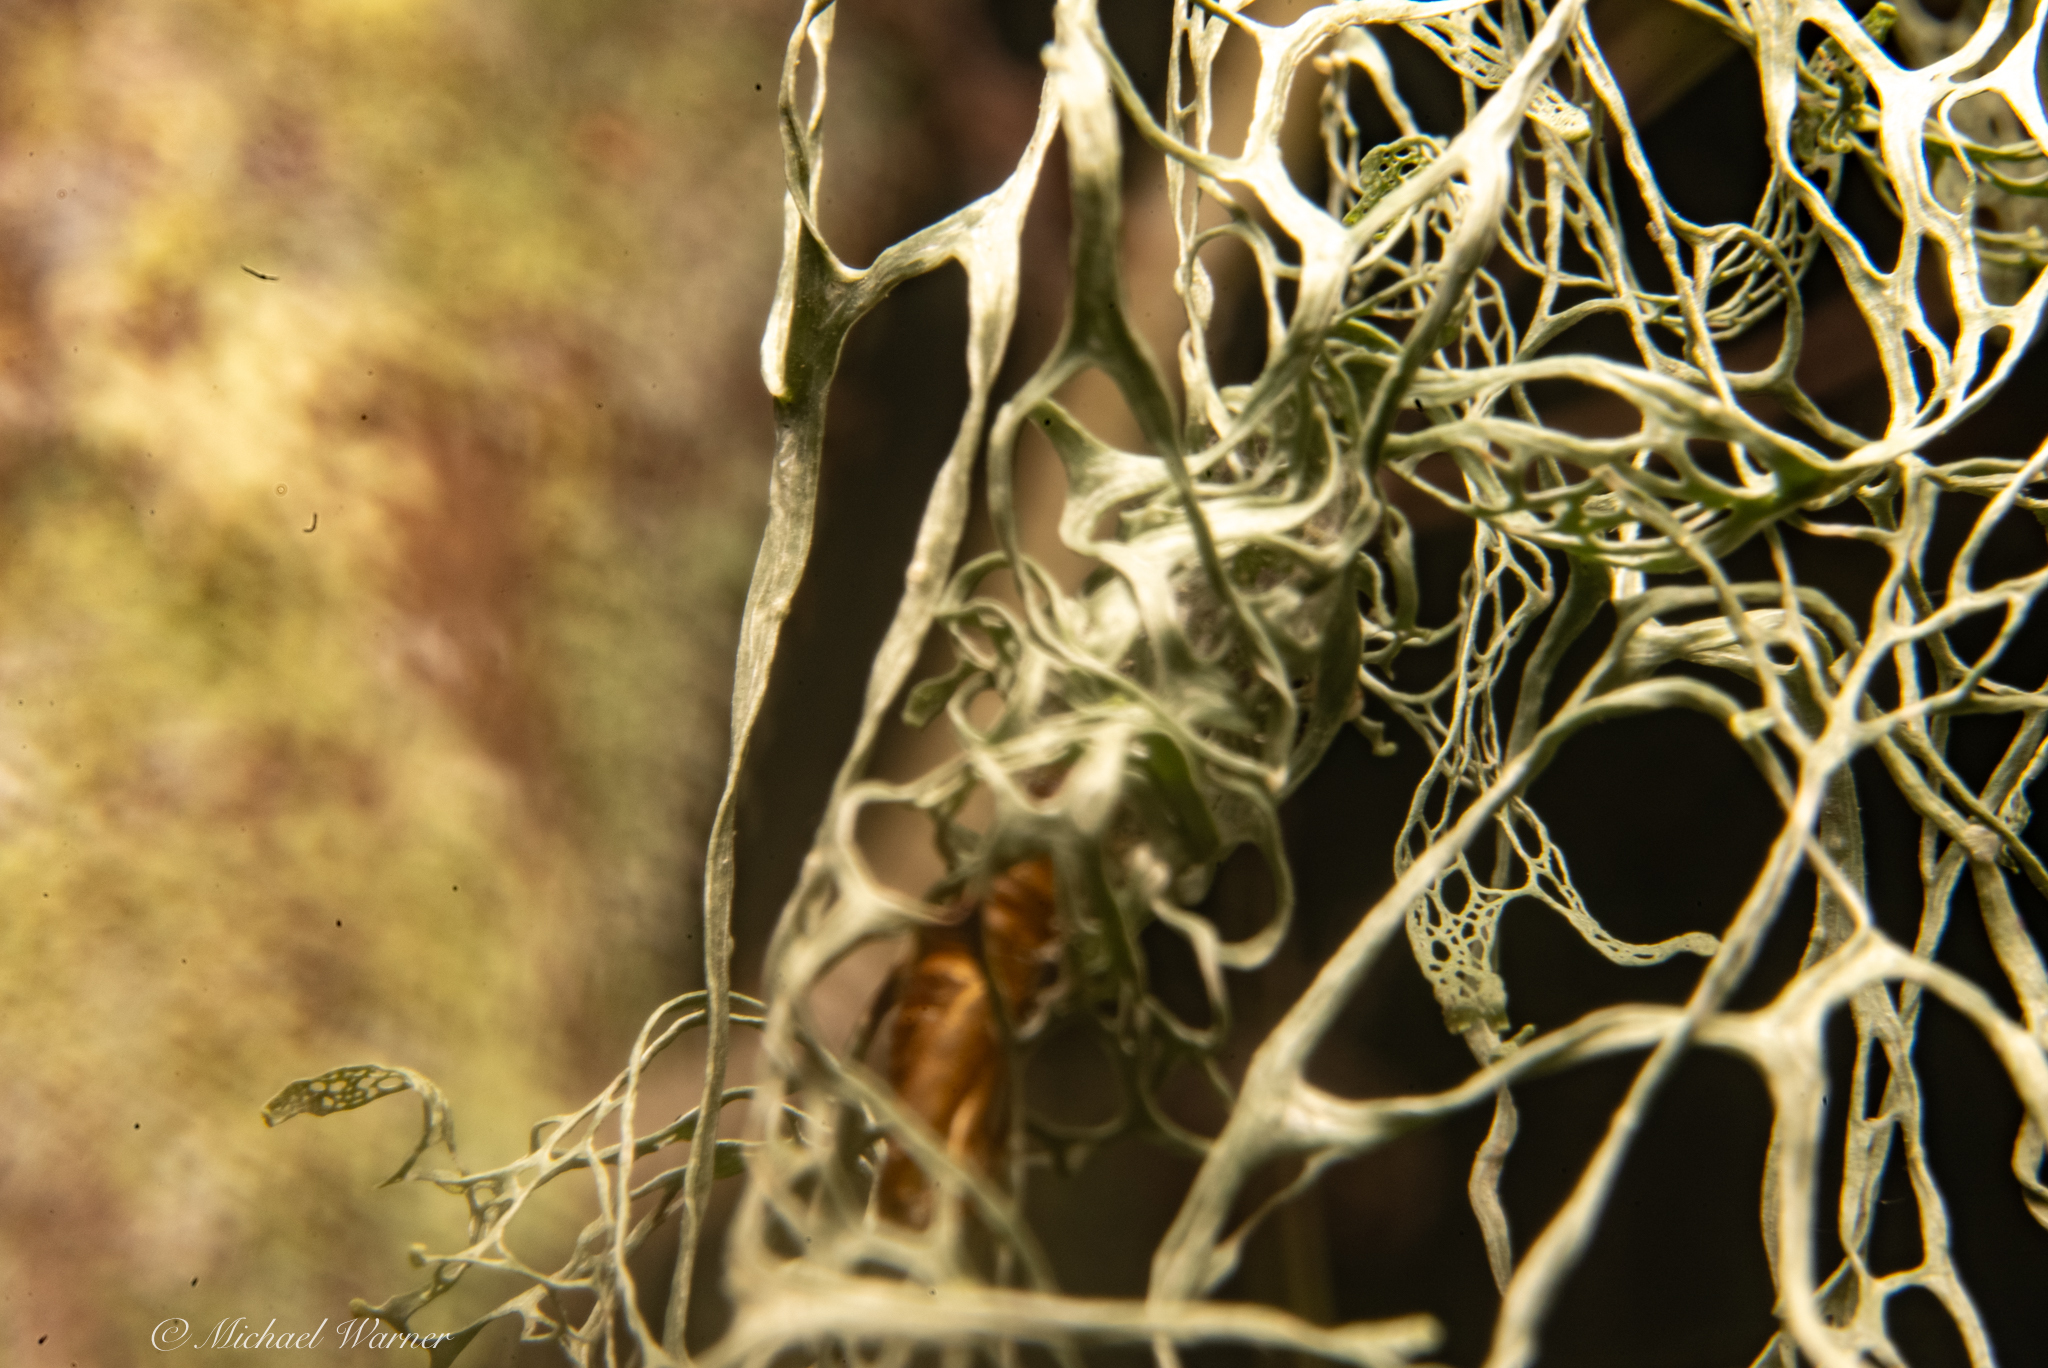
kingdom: Fungi
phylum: Ascomycota
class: Lecanoromycetes
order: Lecanorales
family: Ramalinaceae
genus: Ramalina
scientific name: Ramalina menziesii
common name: Lace lichen
